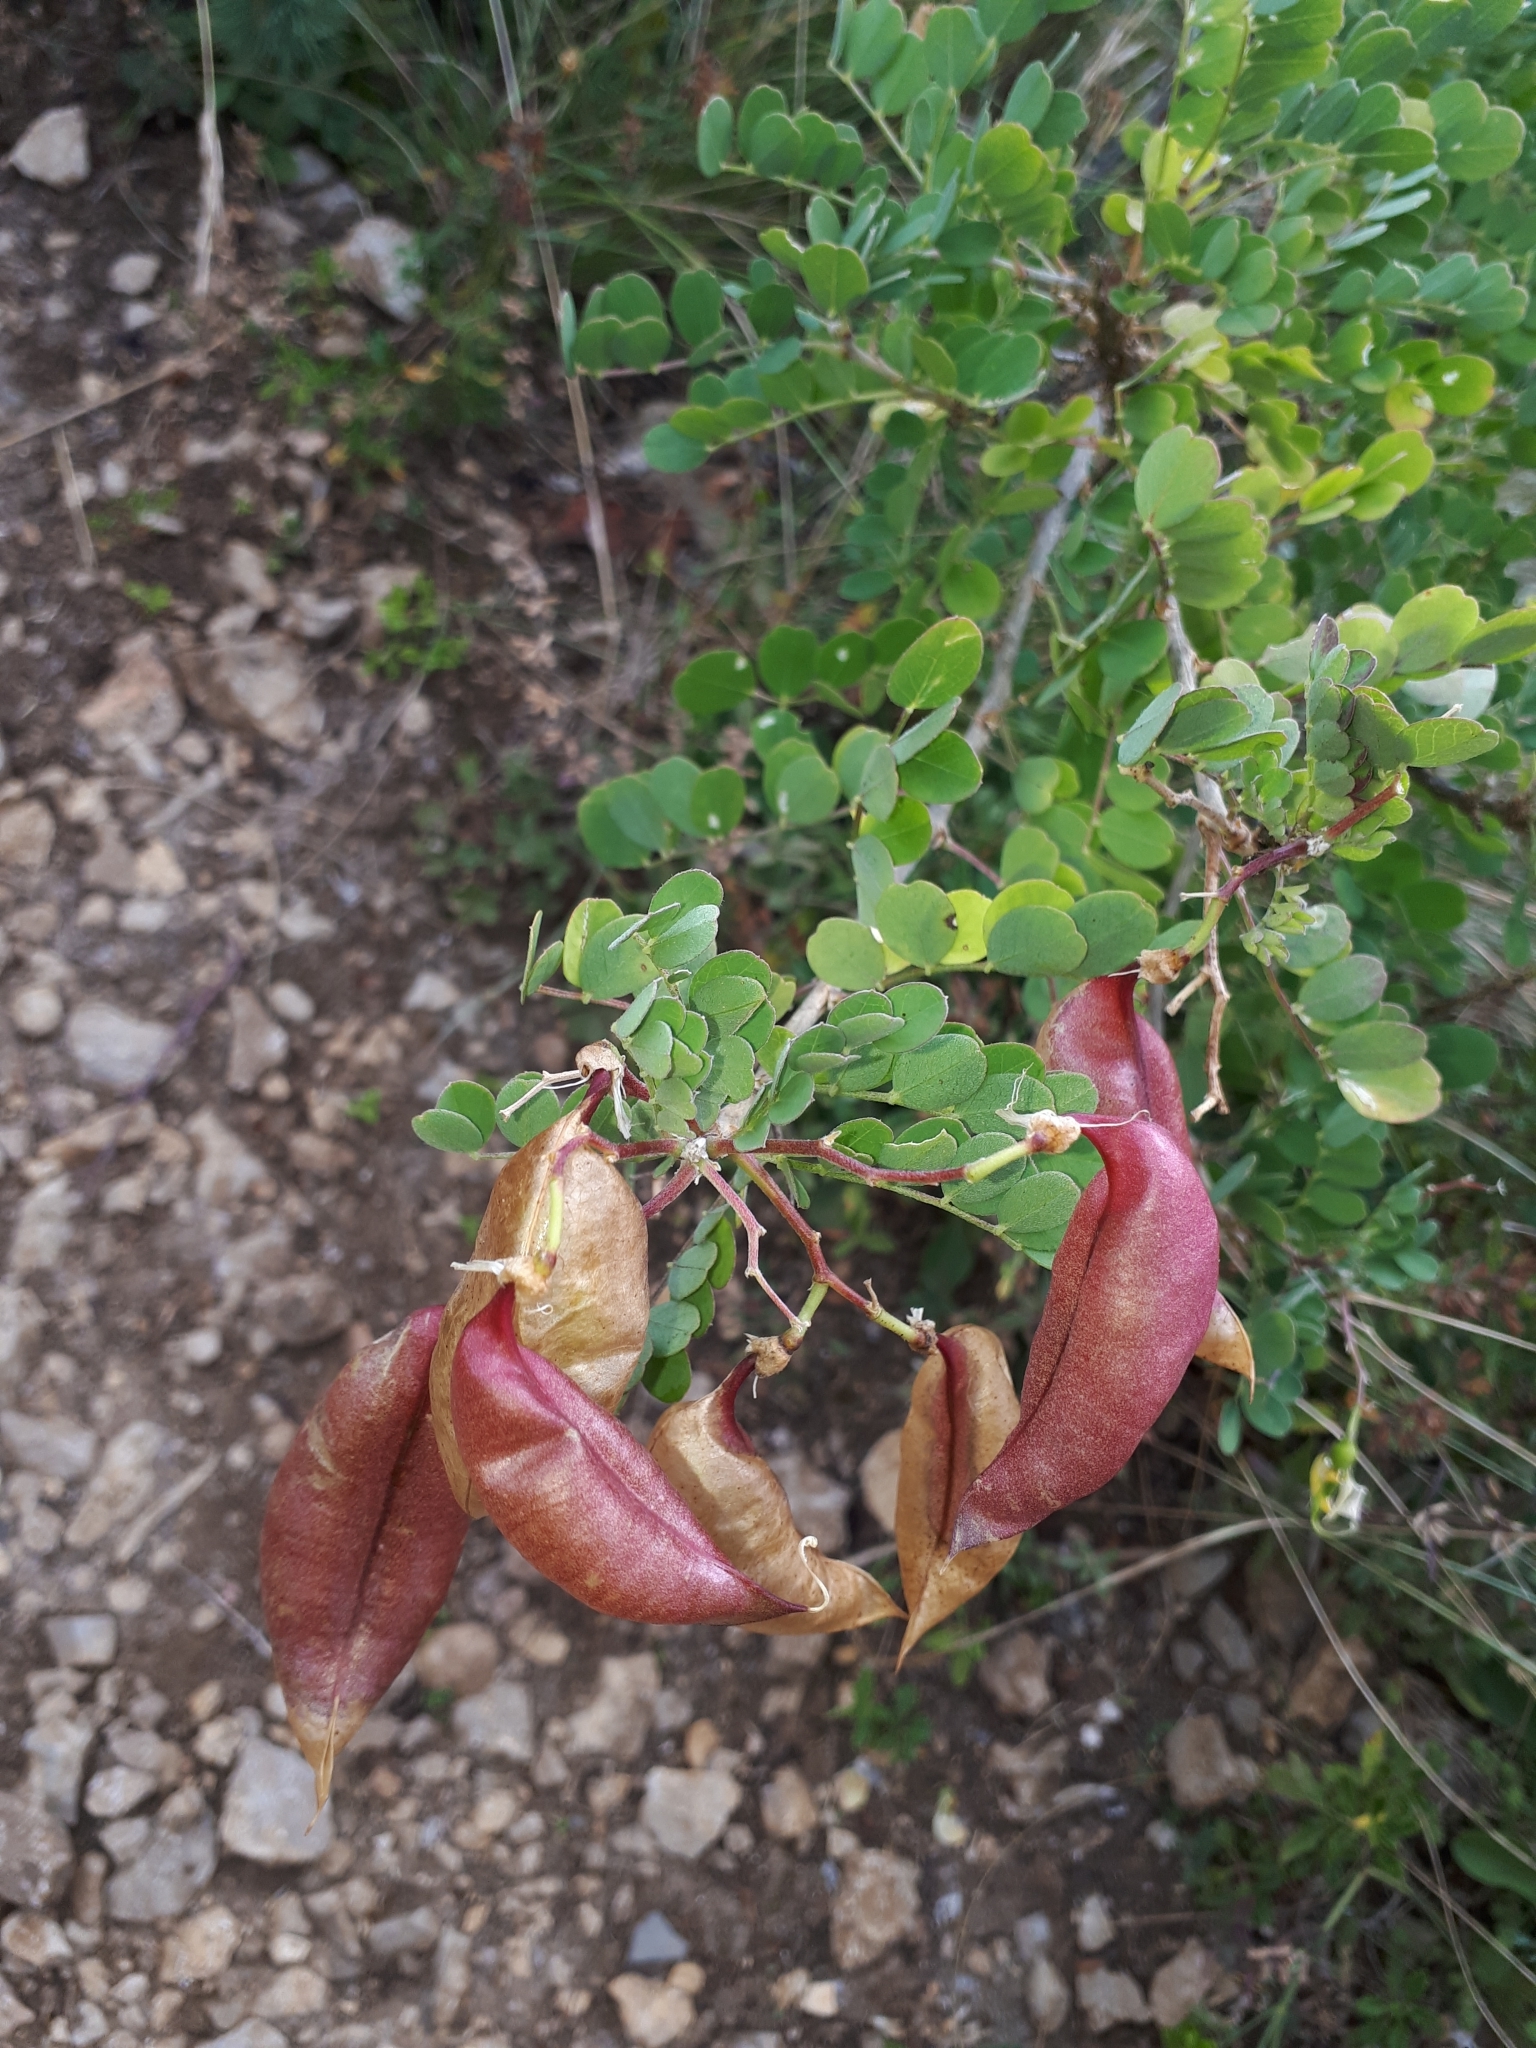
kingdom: Plantae
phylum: Tracheophyta
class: Magnoliopsida
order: Fabales
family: Fabaceae
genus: Colutea
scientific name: Colutea arborescens
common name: Bladder-senna
